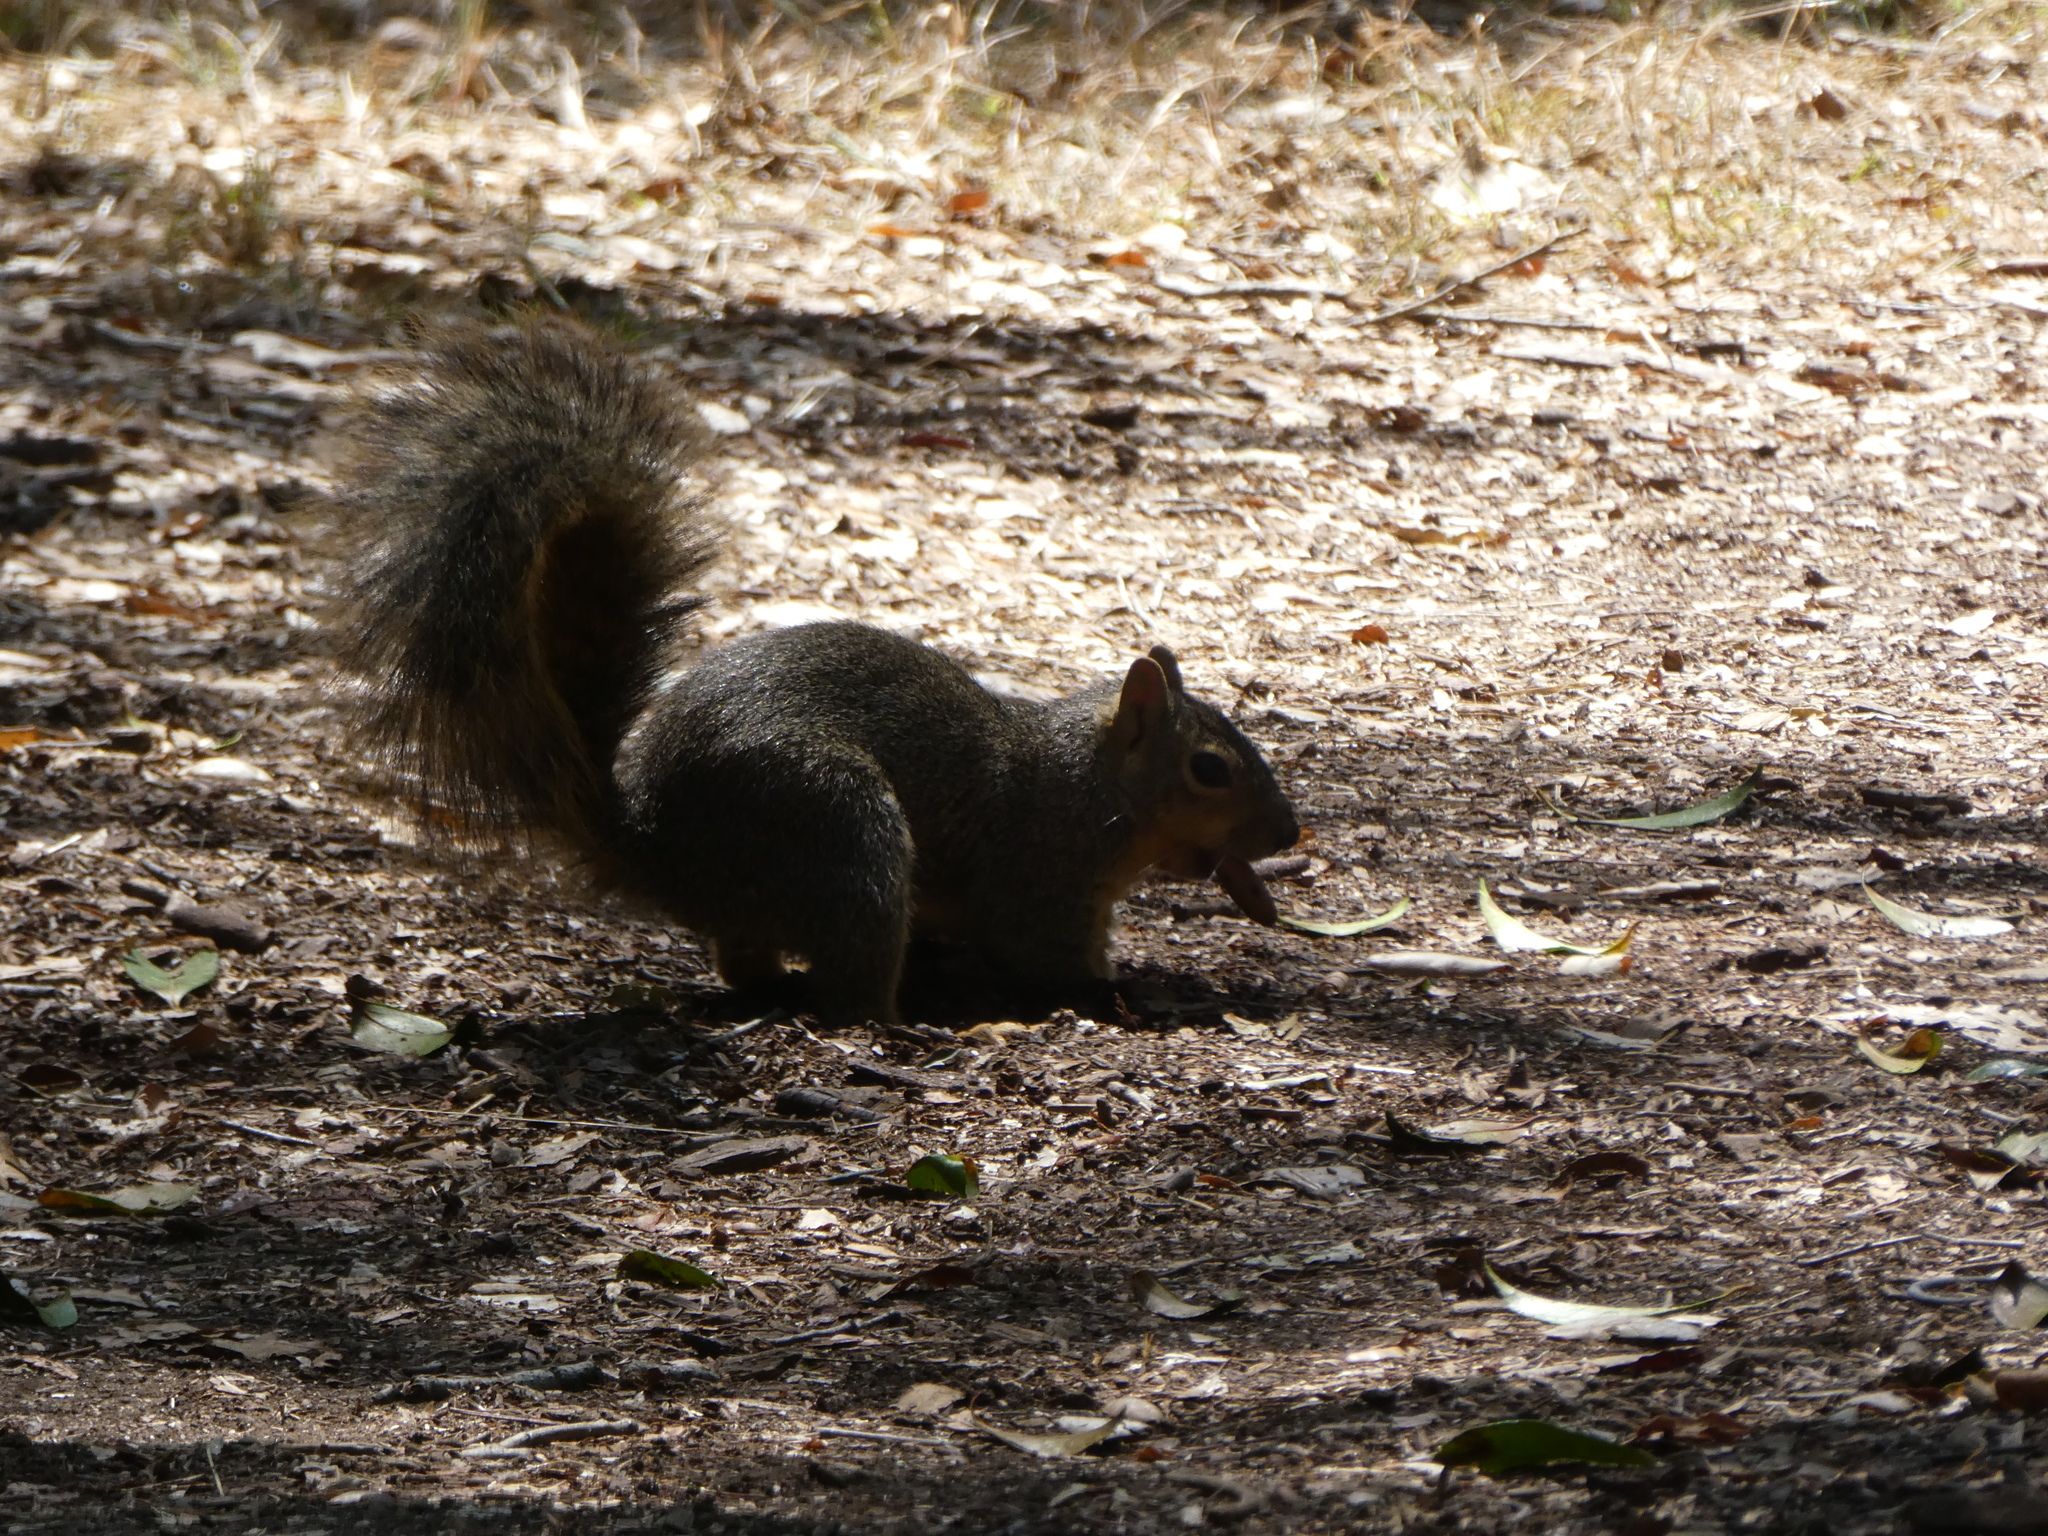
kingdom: Animalia
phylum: Chordata
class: Mammalia
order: Rodentia
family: Sciuridae
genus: Sciurus
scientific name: Sciurus niger
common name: Fox squirrel
